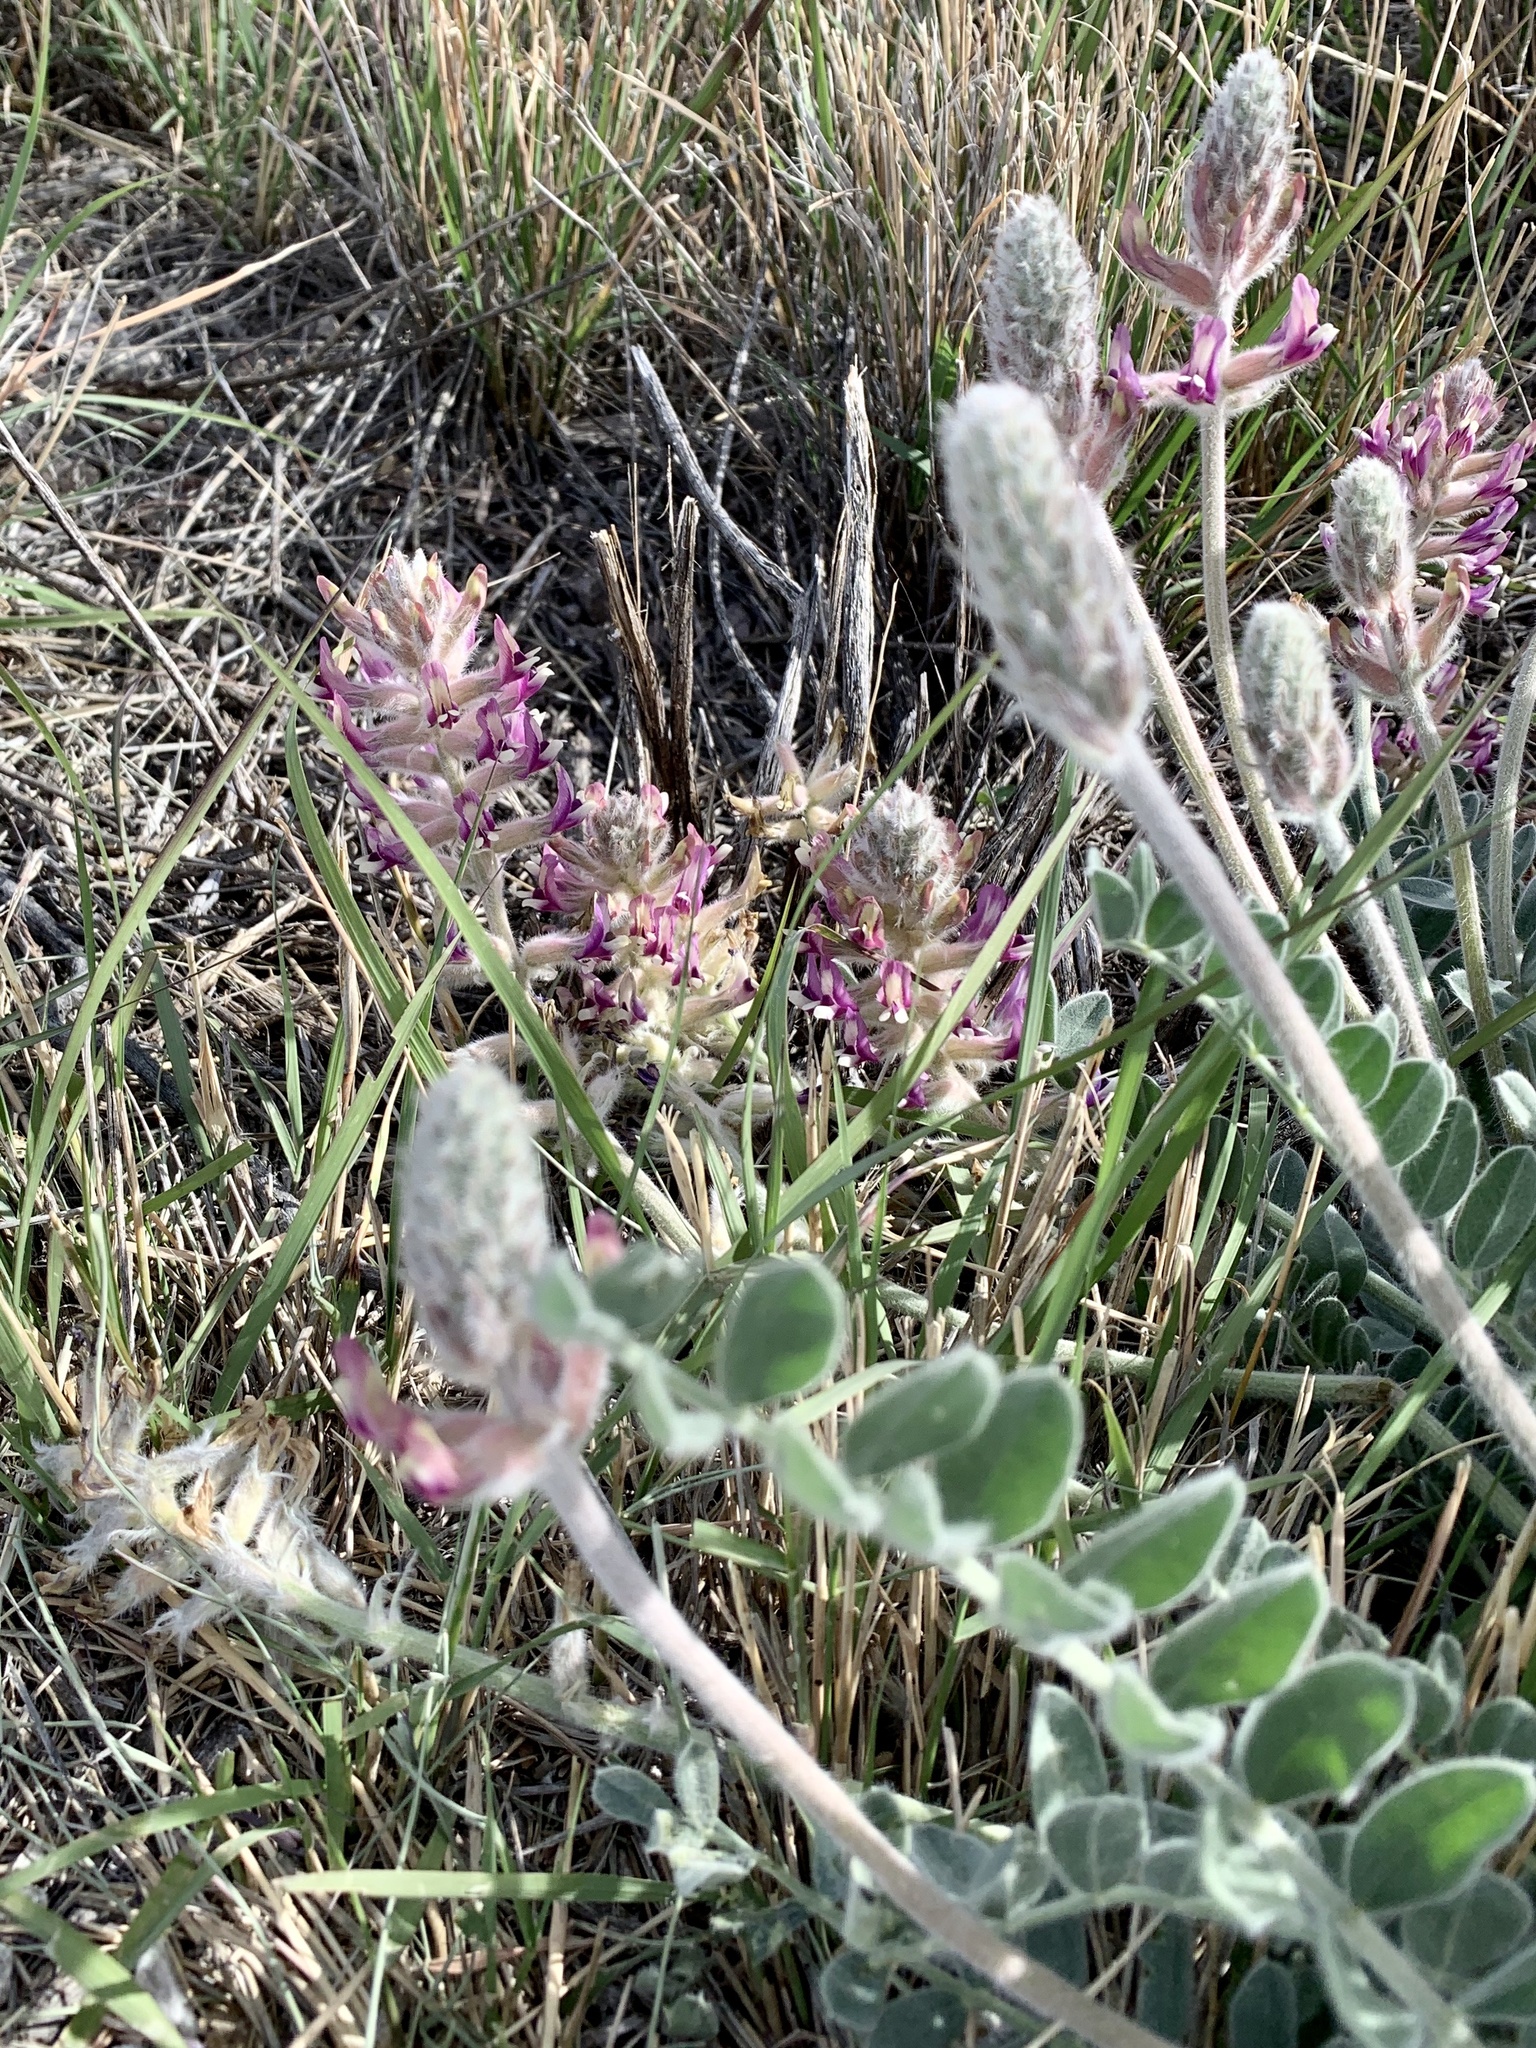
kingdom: Plantae
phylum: Tracheophyta
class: Magnoliopsida
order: Fabales
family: Fabaceae
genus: Astragalus
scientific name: Astragalus mollissimus
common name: Woolly locoweed
